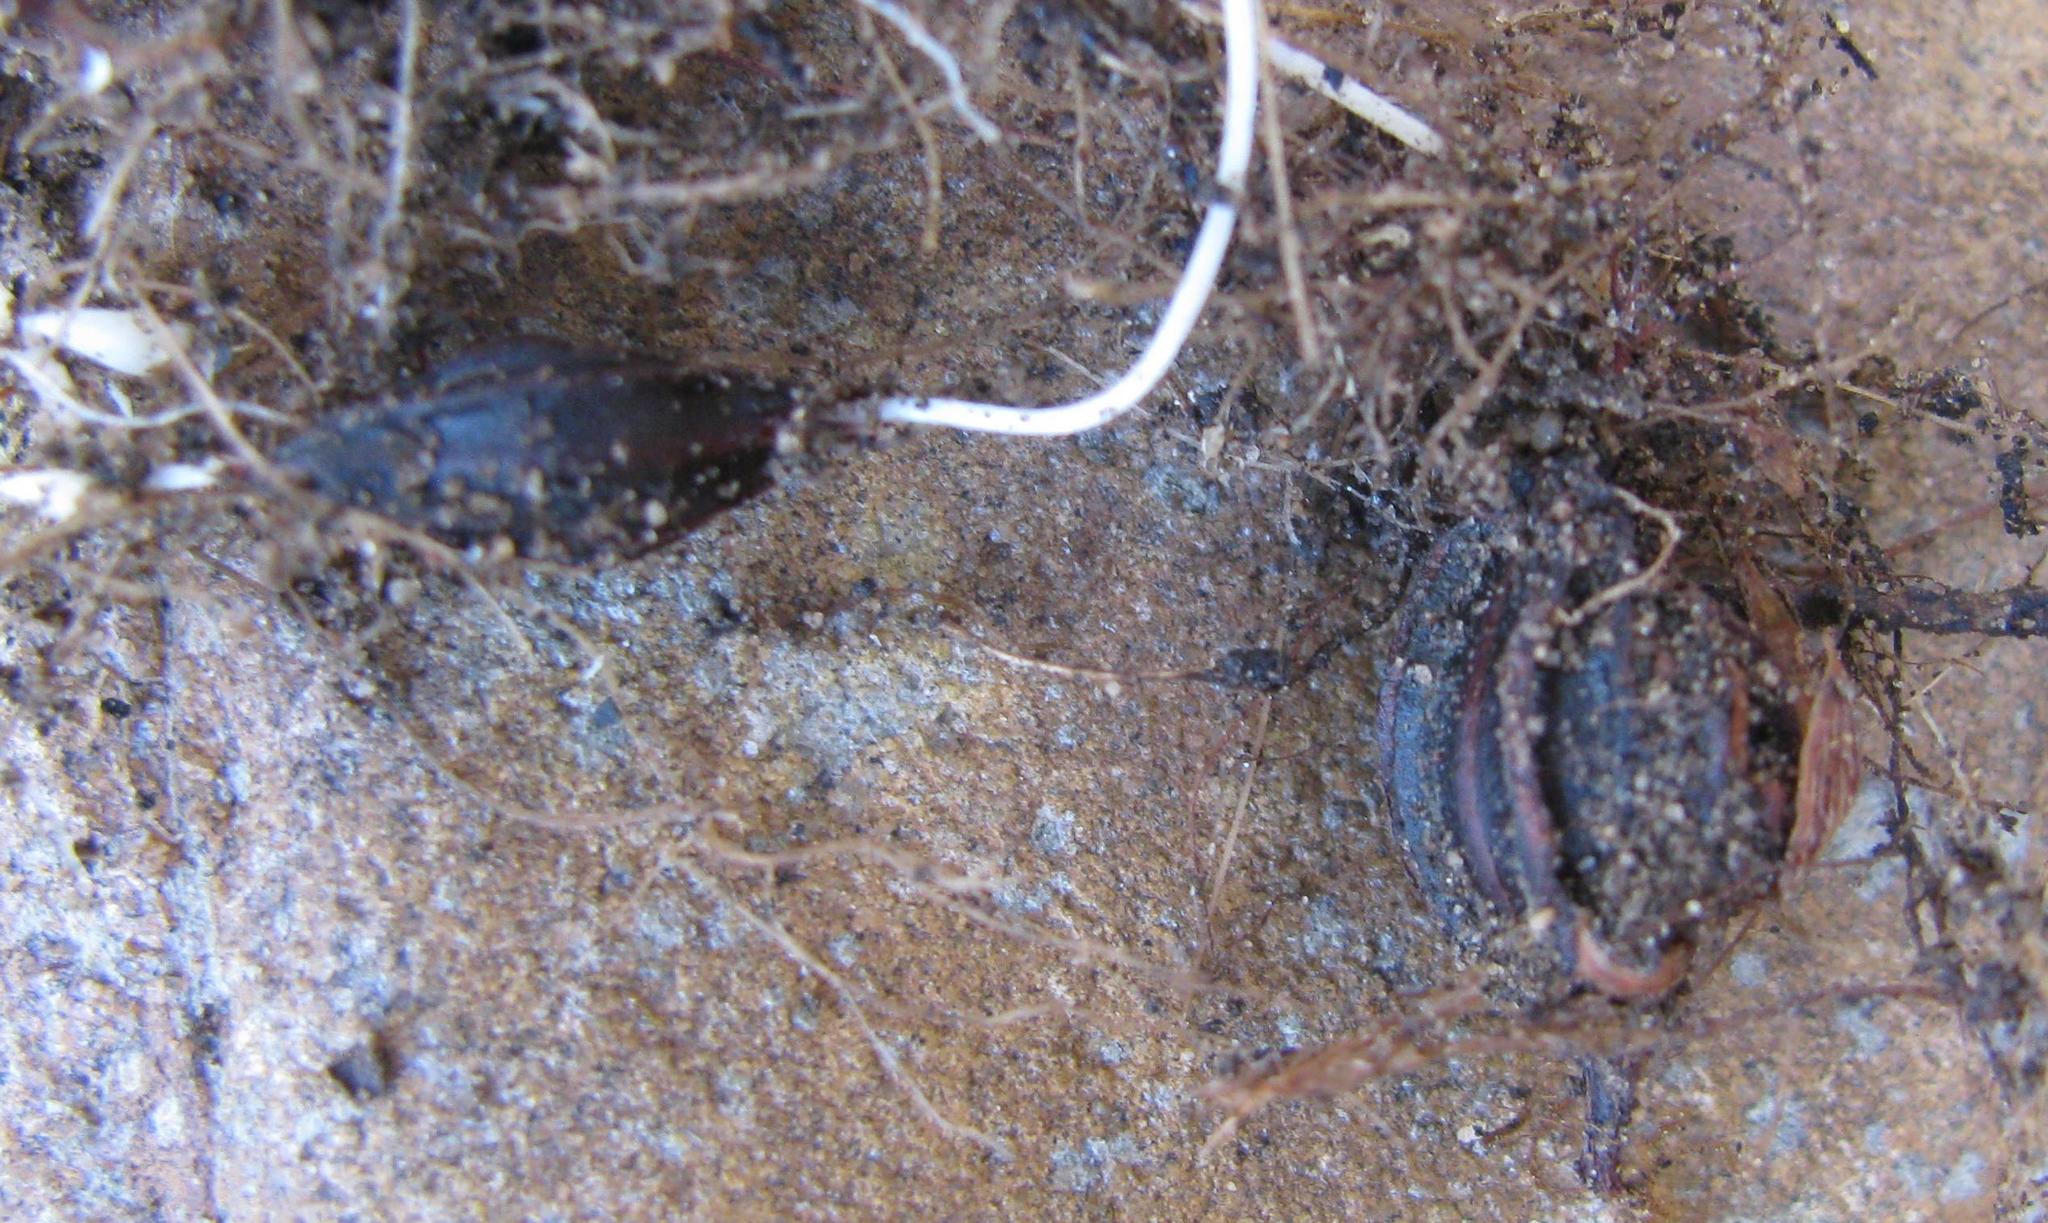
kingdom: Plantae
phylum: Tracheophyta
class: Magnoliopsida
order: Oxalidales
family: Oxalidaceae
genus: Oxalis
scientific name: Oxalis obtusa
